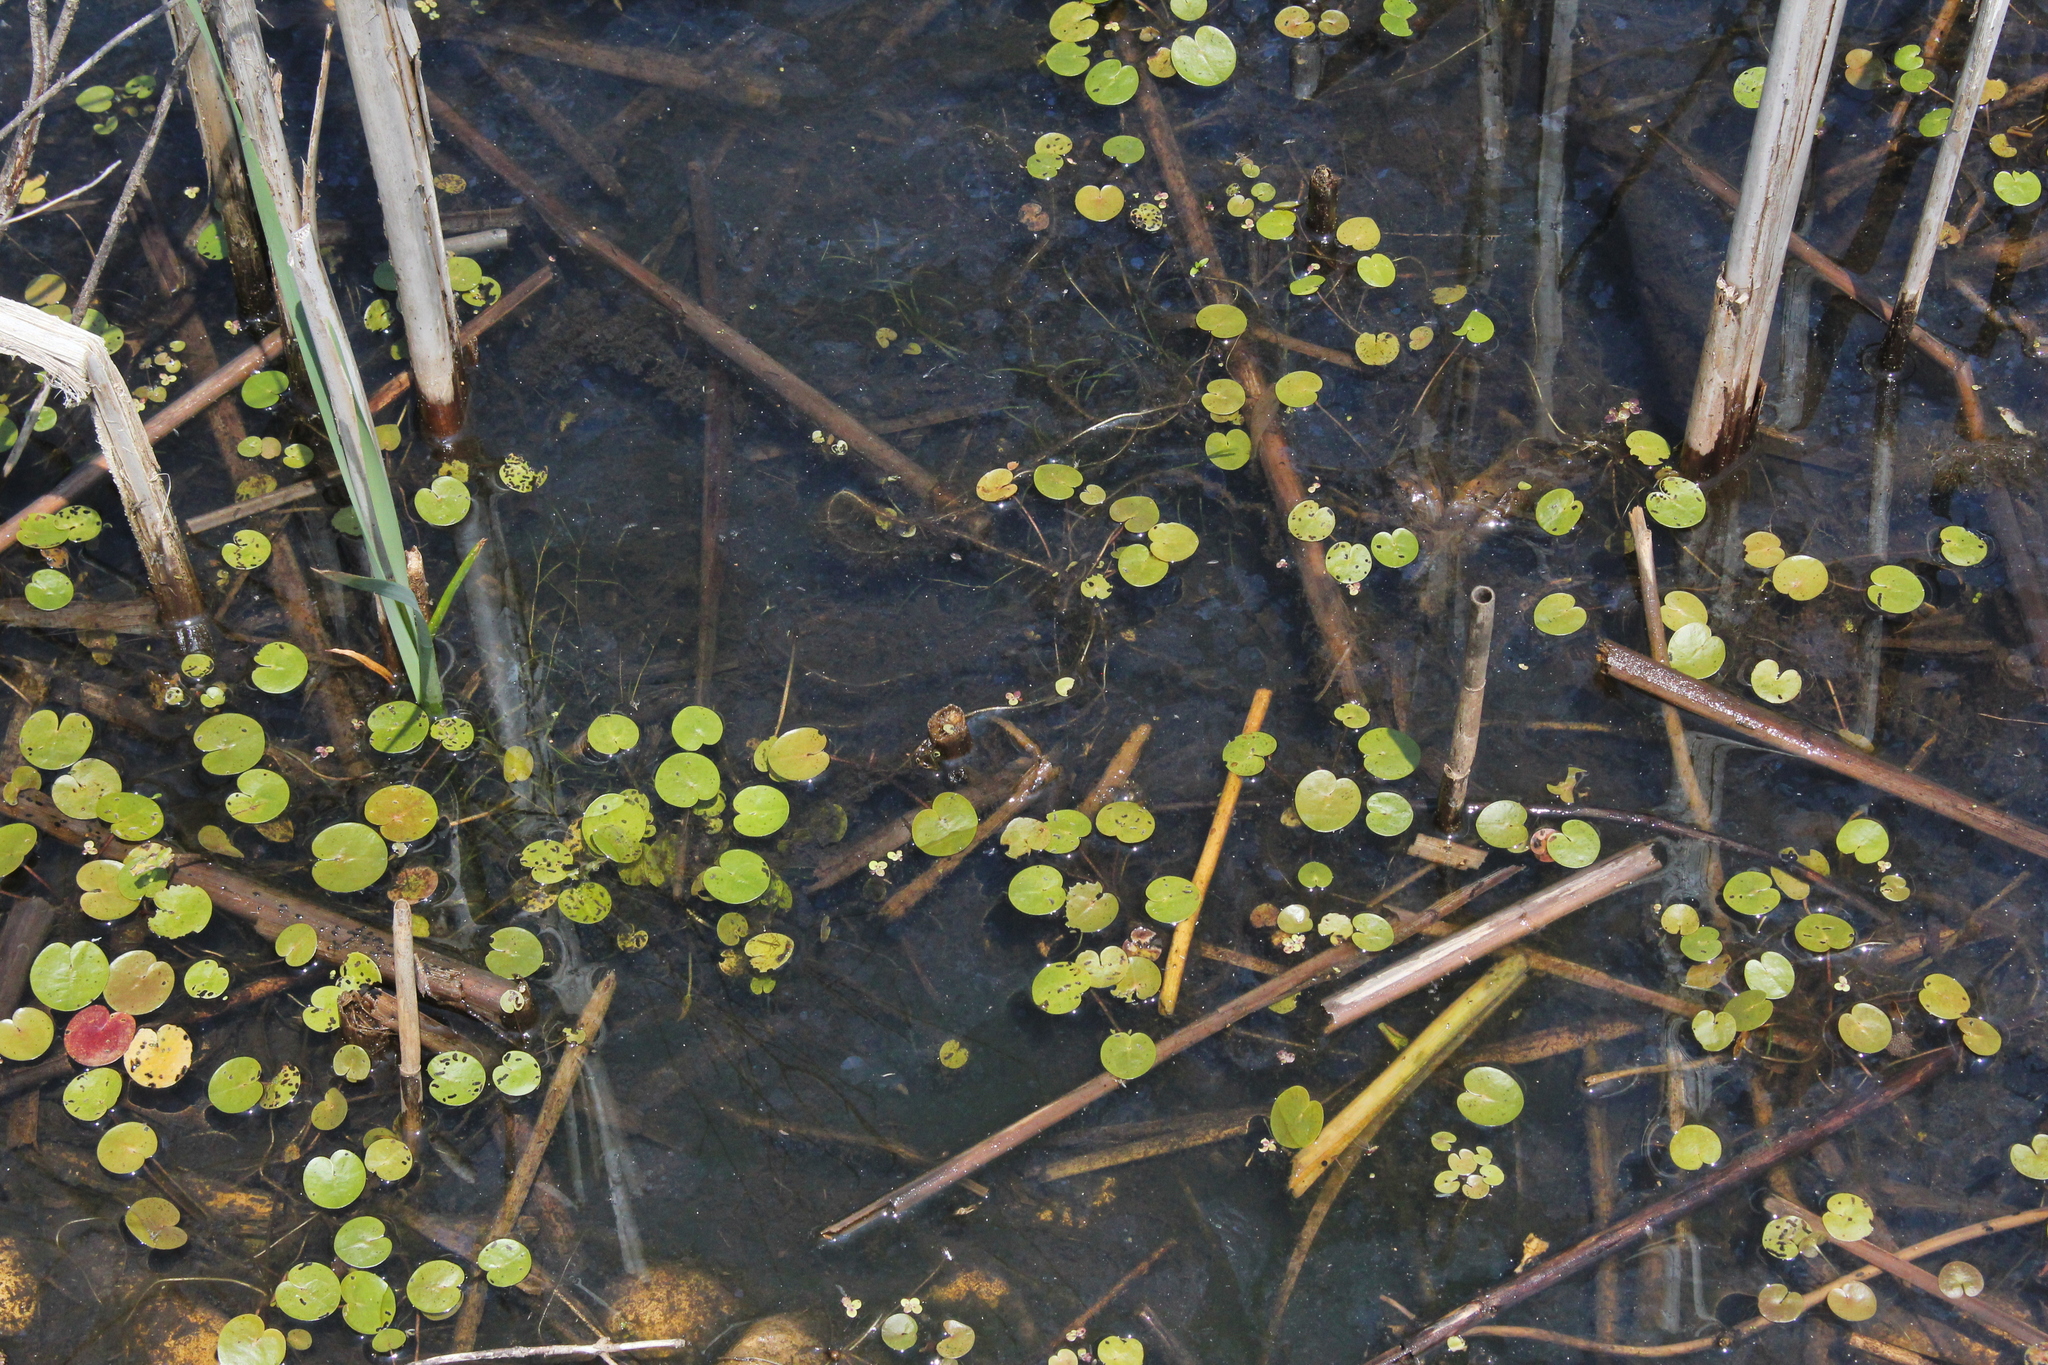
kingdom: Plantae
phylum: Tracheophyta
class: Liliopsida
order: Alismatales
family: Hydrocharitaceae
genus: Hydrocharis
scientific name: Hydrocharis morsus-ranae
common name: Frogbit
